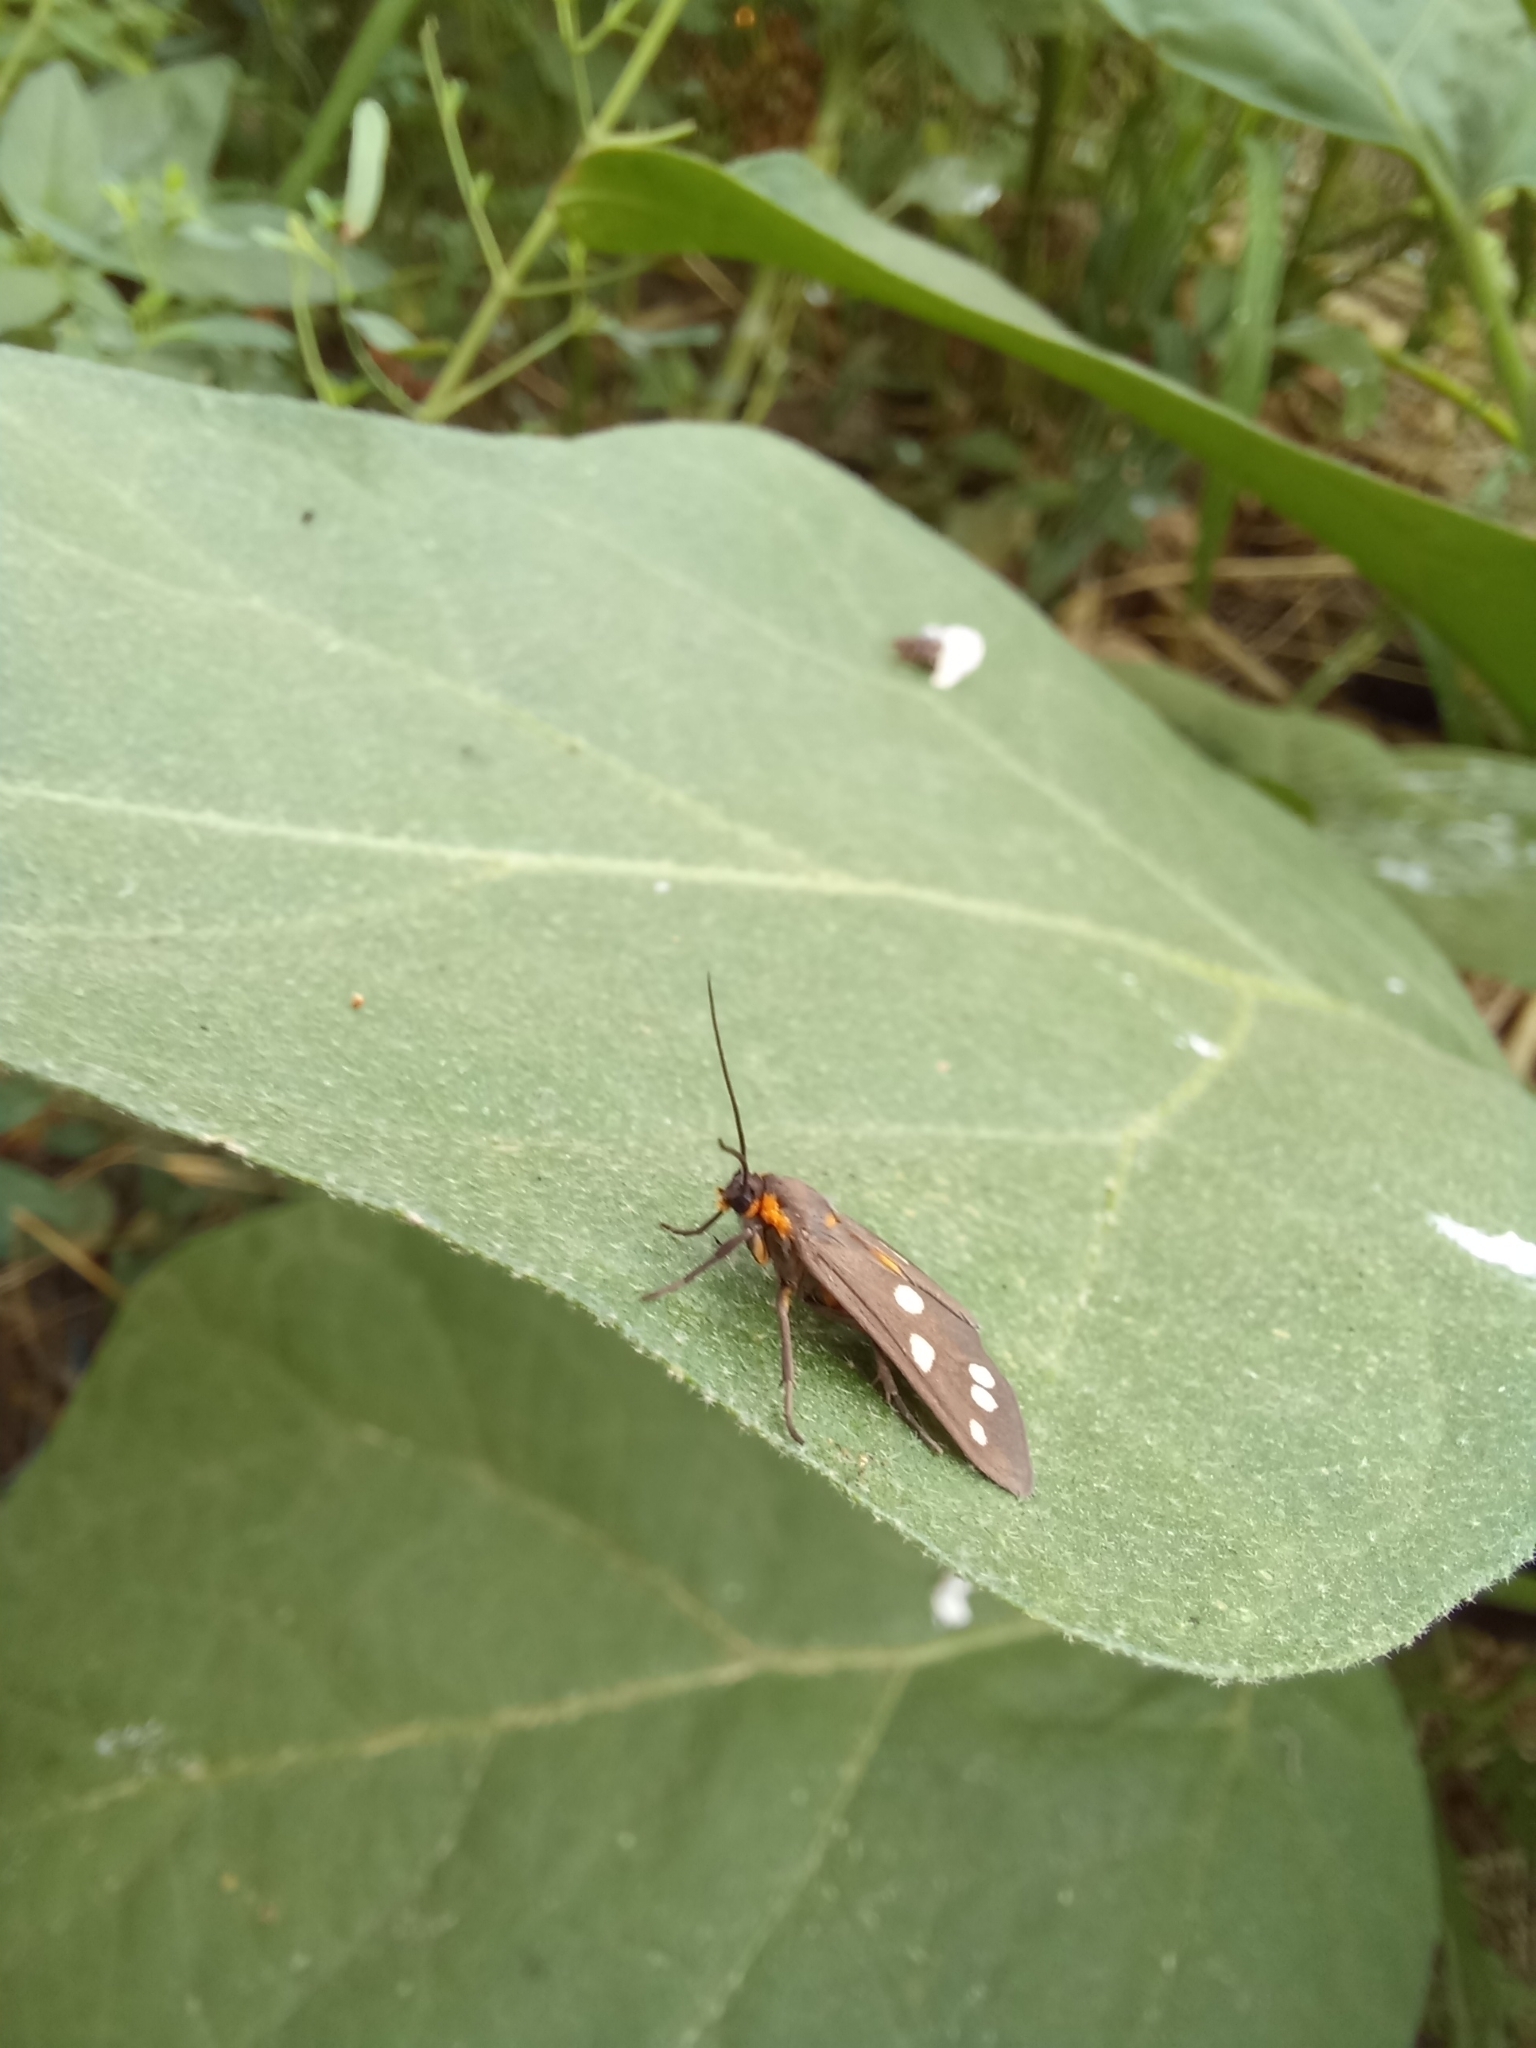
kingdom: Animalia
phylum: Arthropoda
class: Insecta
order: Lepidoptera
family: Erebidae
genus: Dysauxes
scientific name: Dysauxes punctata
